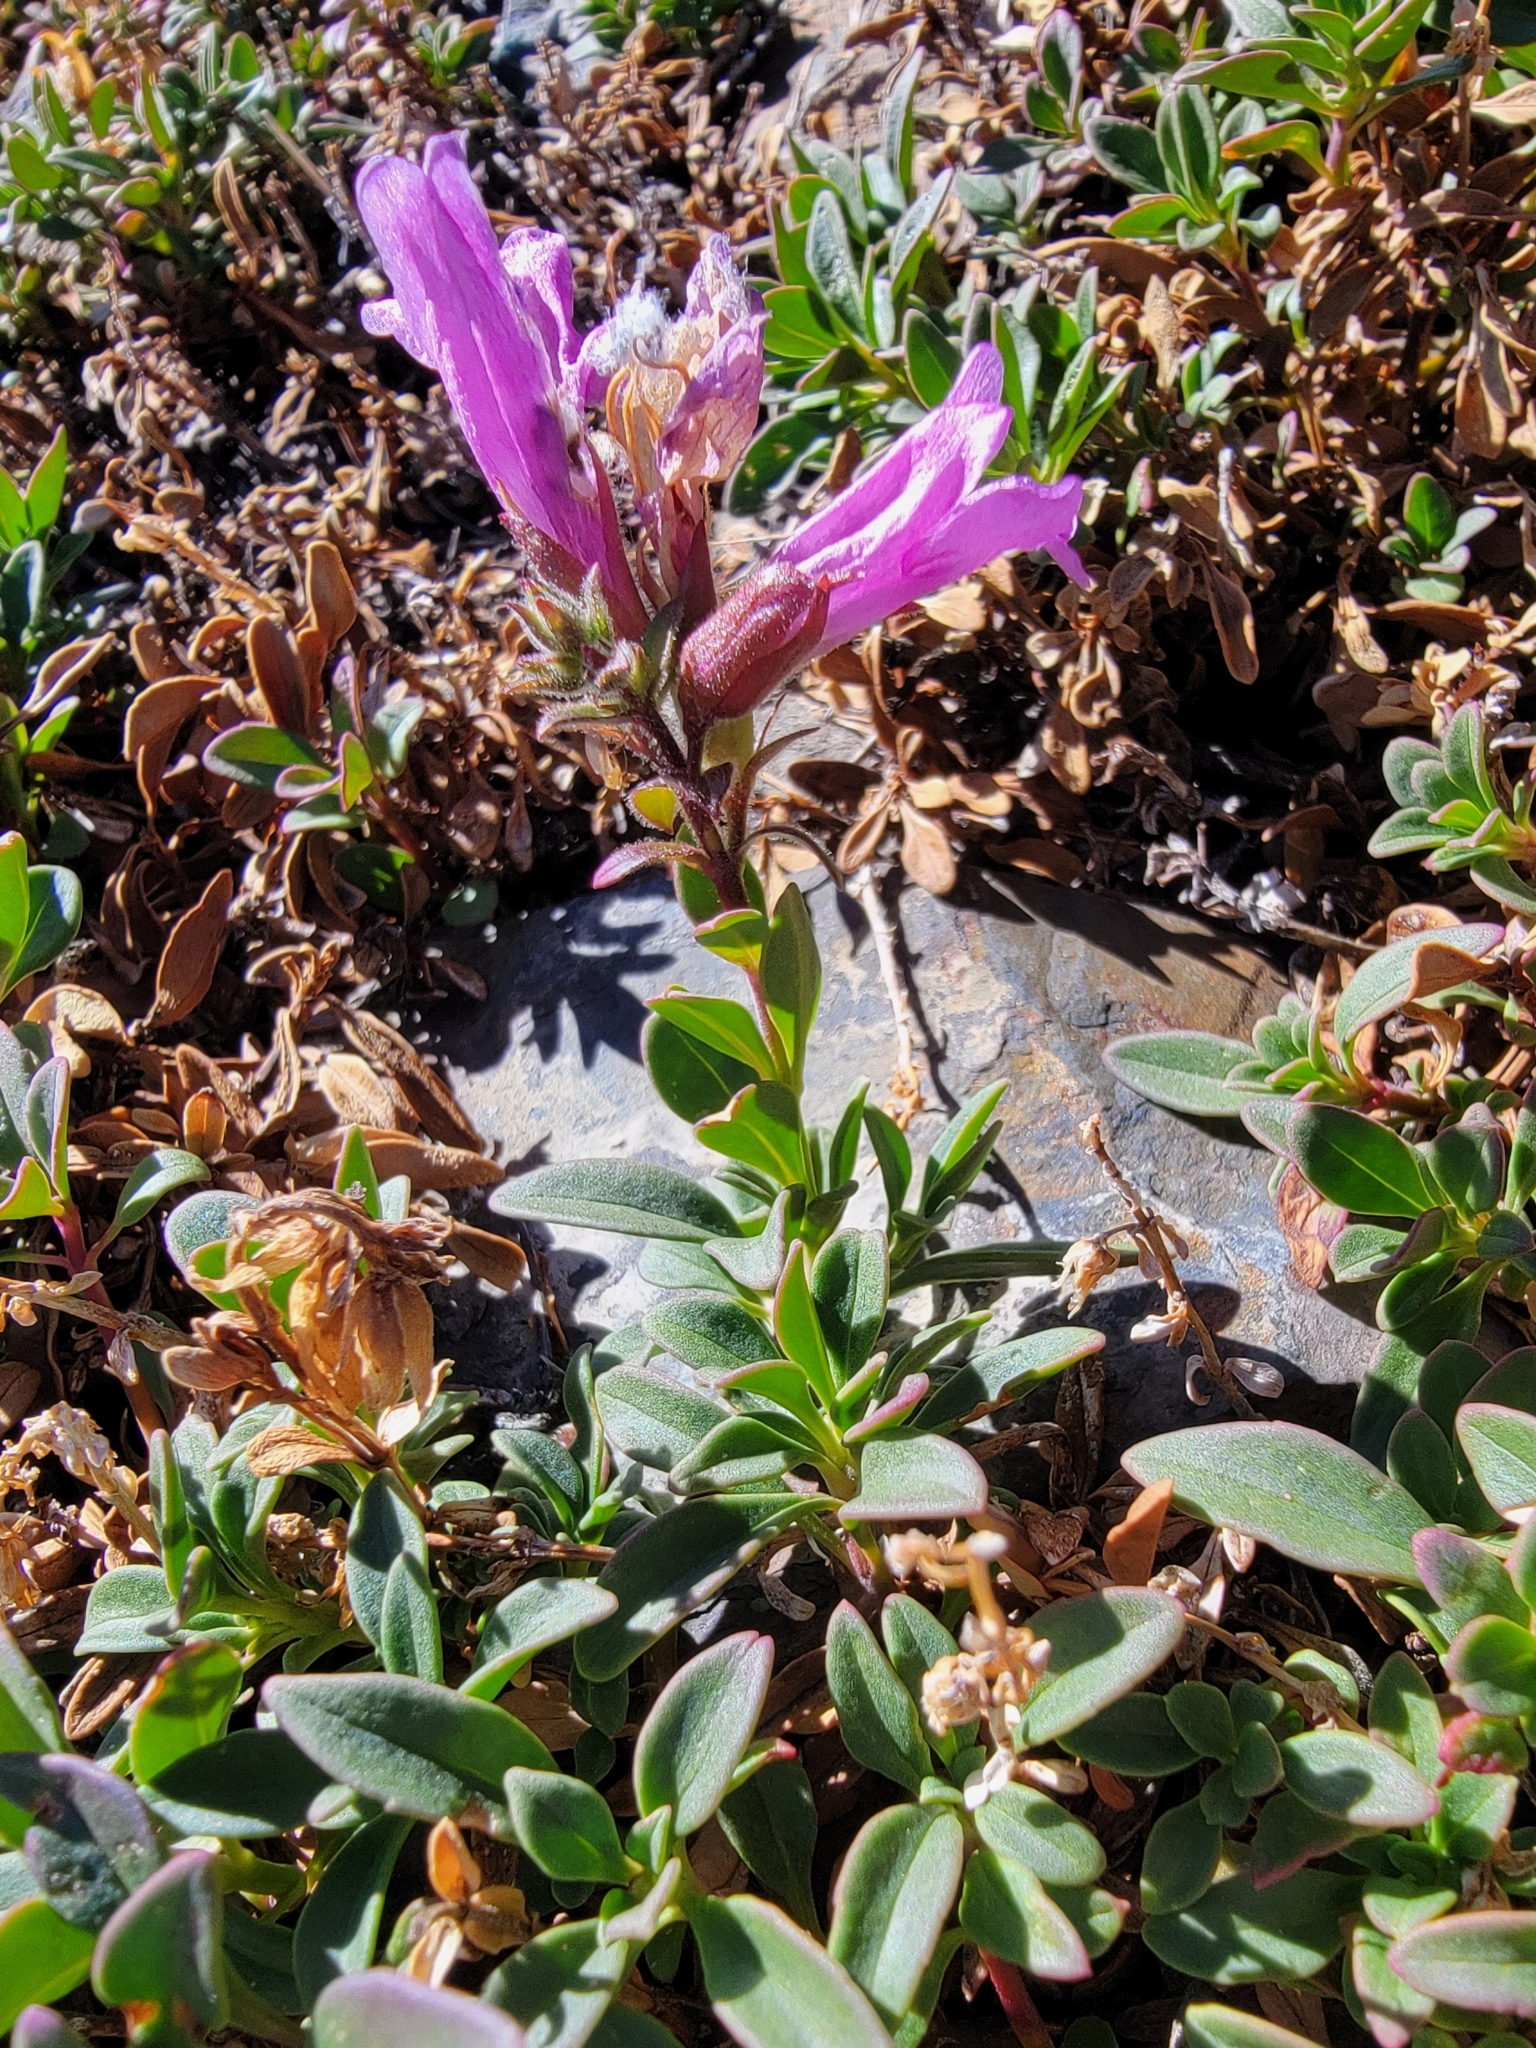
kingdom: Plantae
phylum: Tracheophyta
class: Magnoliopsida
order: Lamiales
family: Plantaginaceae
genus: Penstemon
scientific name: Penstemon newberryi
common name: Mountain-pride
